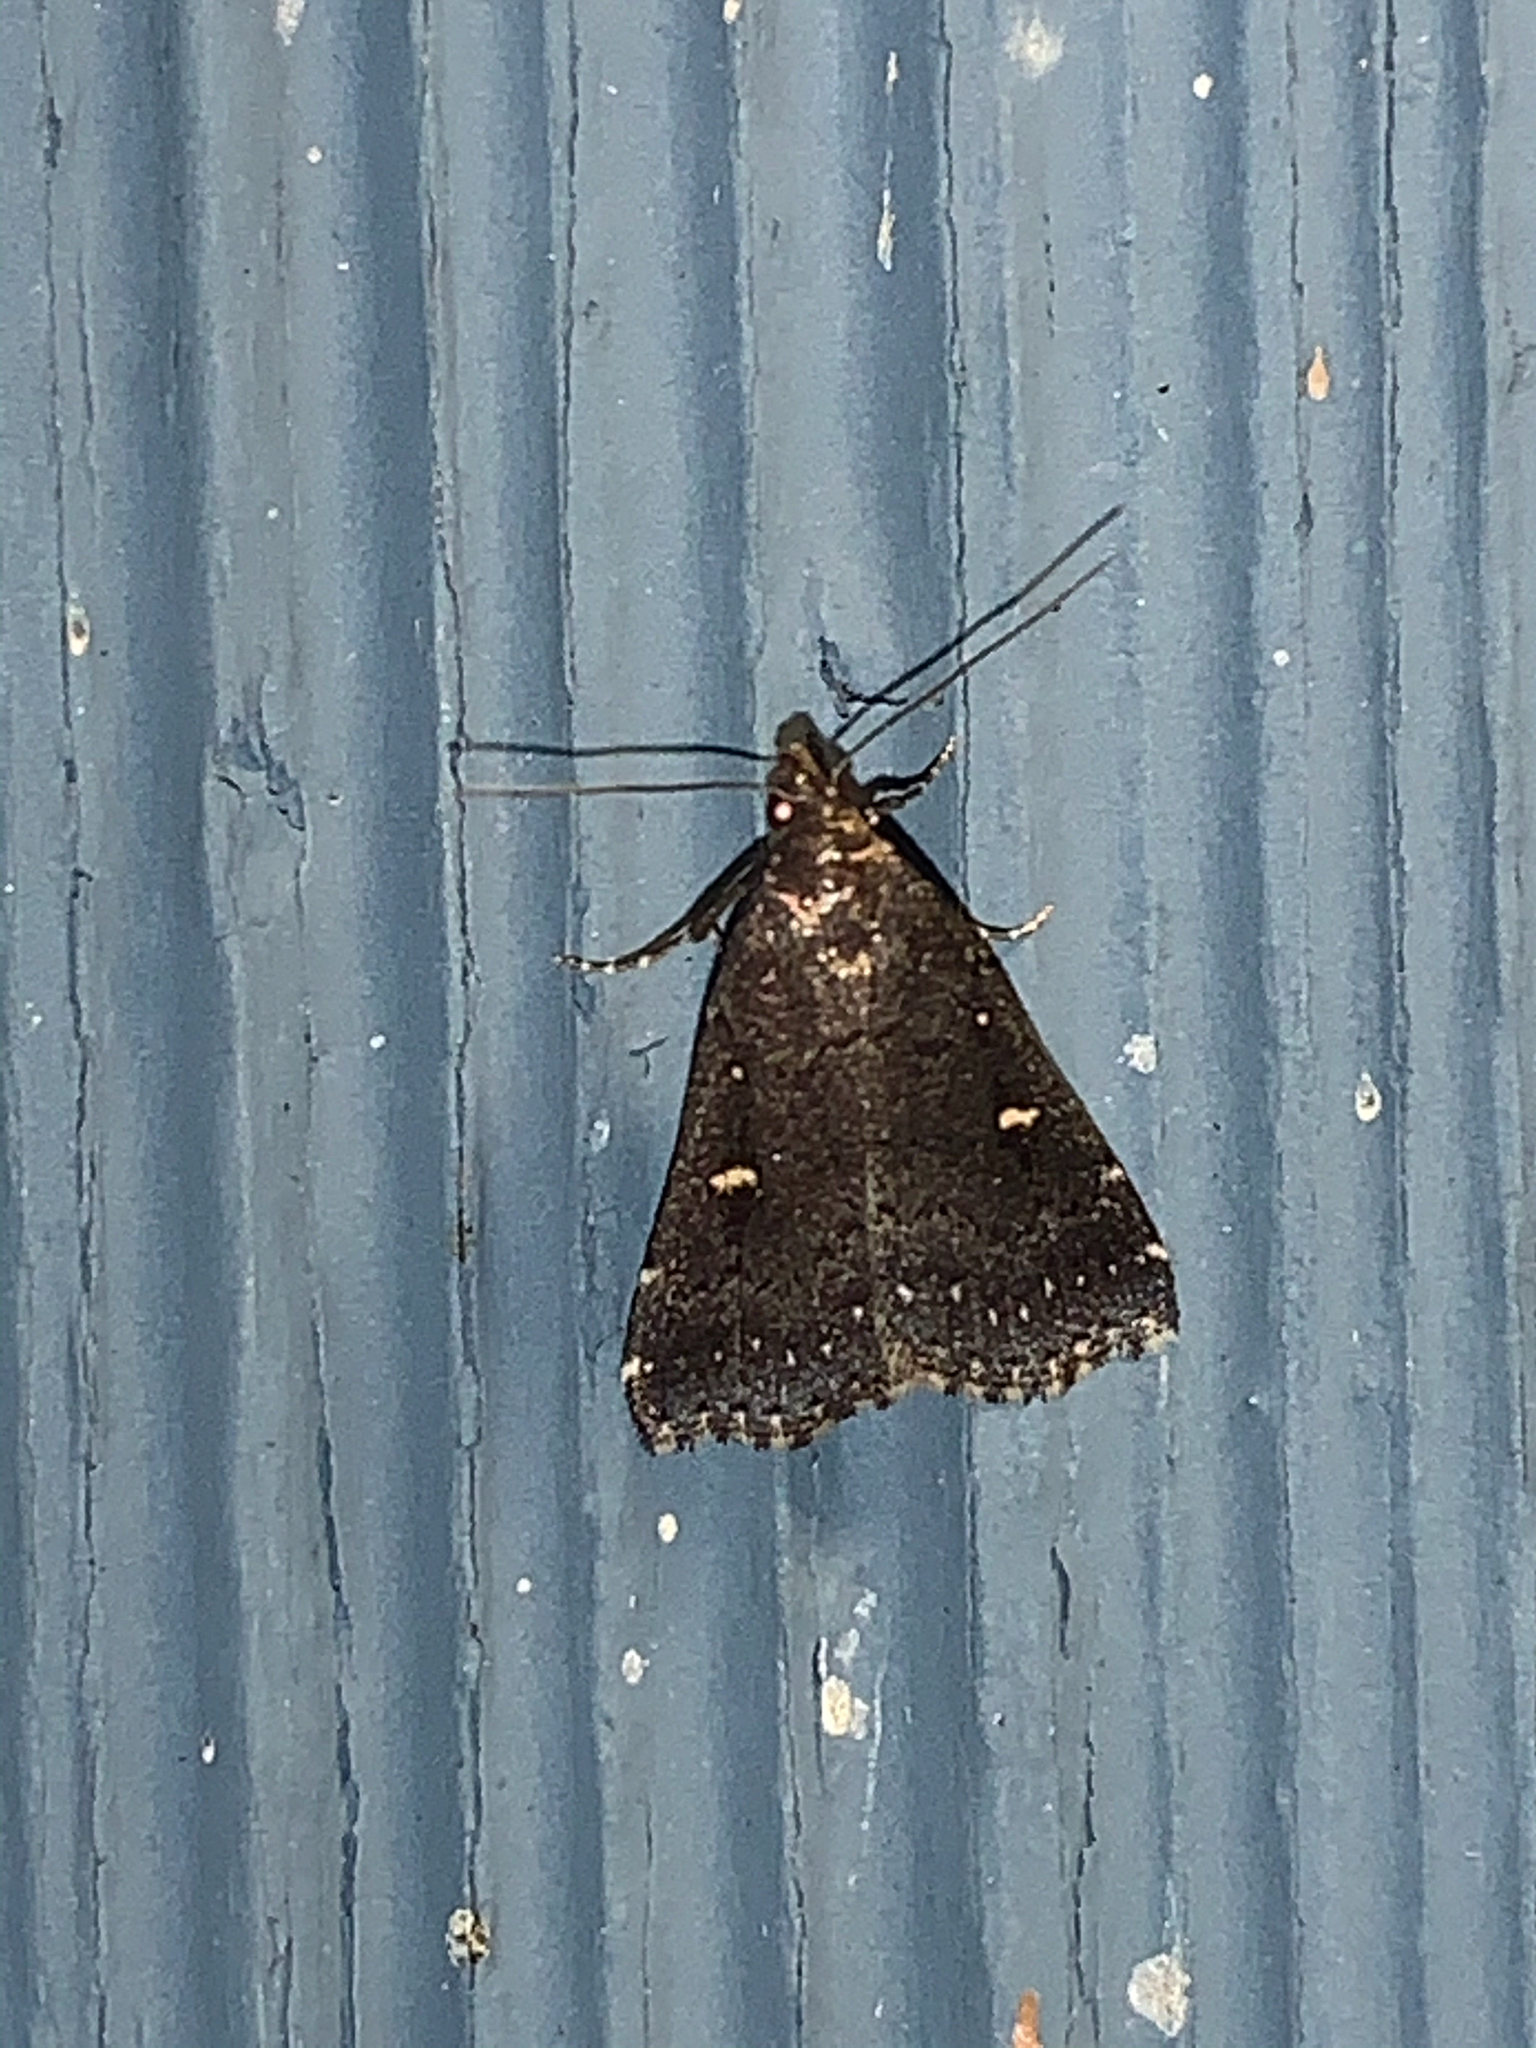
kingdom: Animalia
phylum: Arthropoda
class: Insecta
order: Lepidoptera
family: Erebidae
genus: Tetanolita
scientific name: Tetanolita mynesalis
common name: Smoky tetanolita moth
